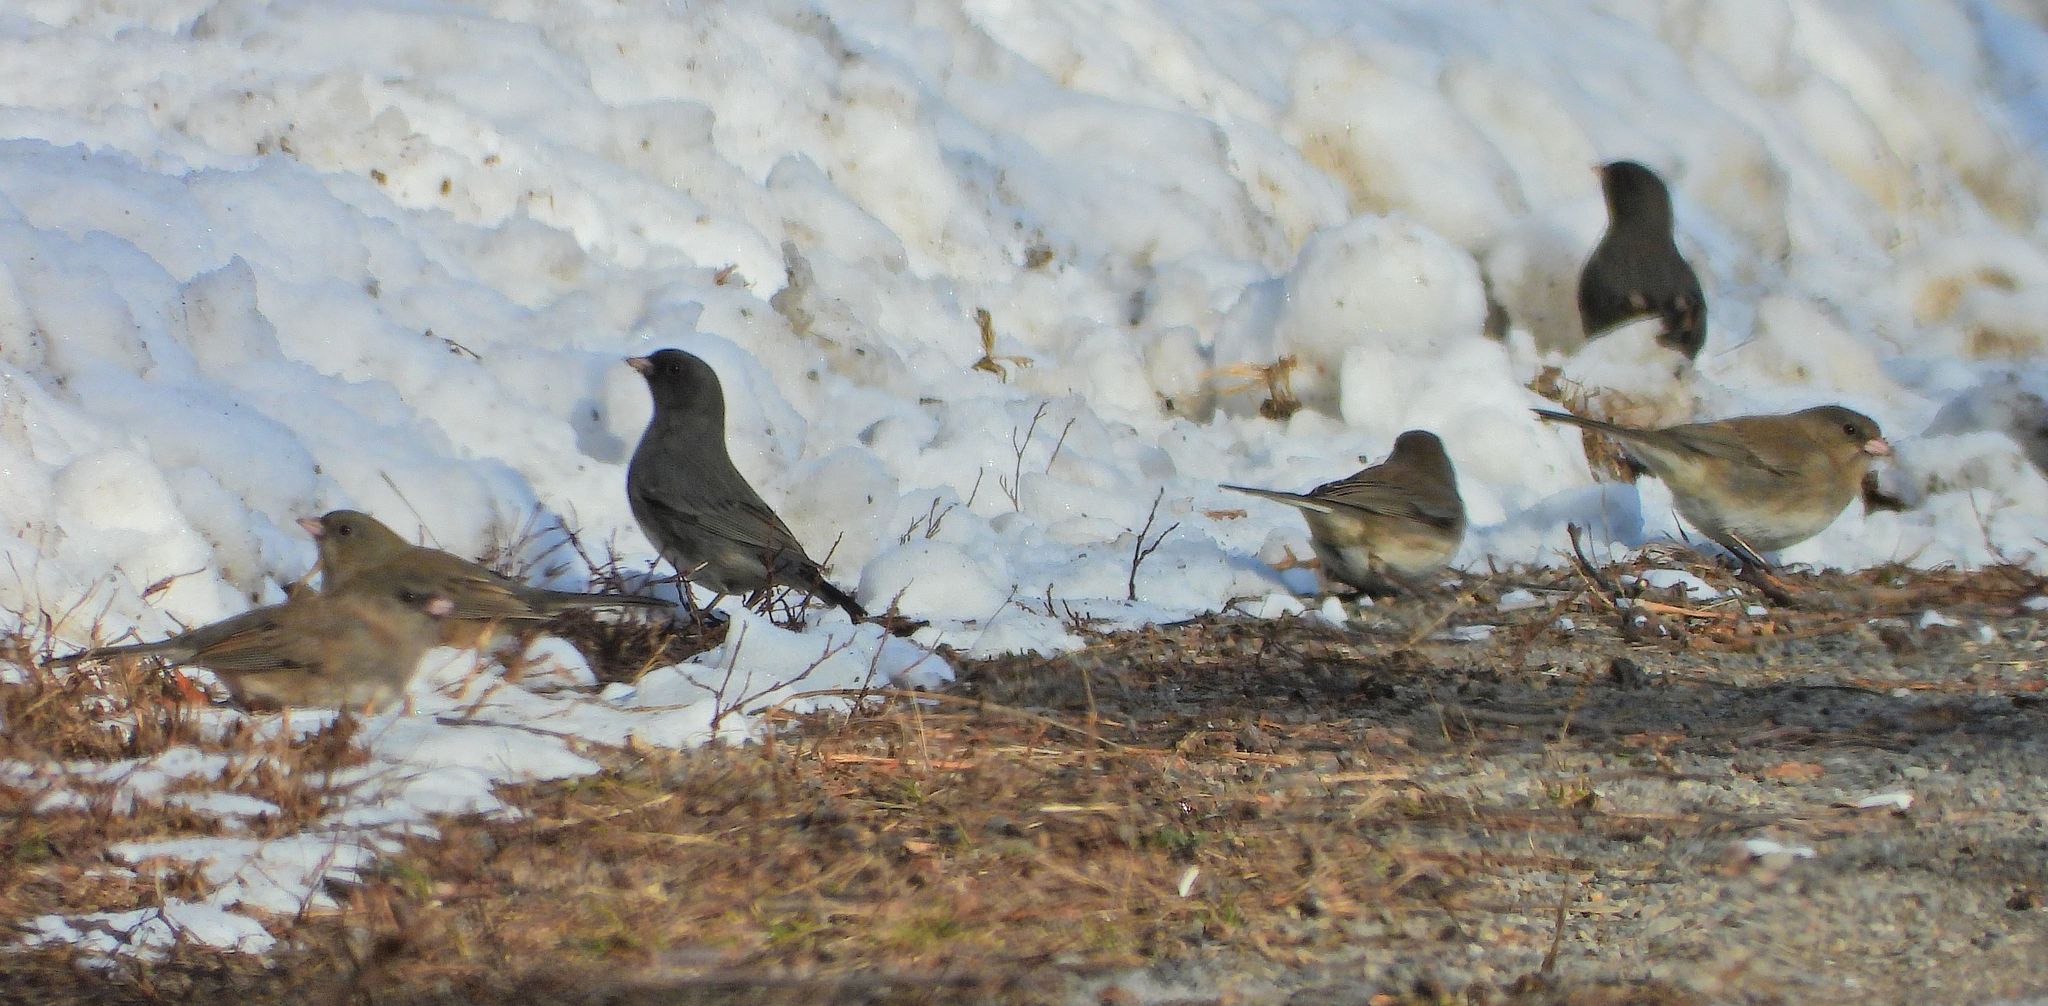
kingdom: Animalia
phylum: Chordata
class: Aves
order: Passeriformes
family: Passerellidae
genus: Junco
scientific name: Junco hyemalis
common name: Dark-eyed junco
